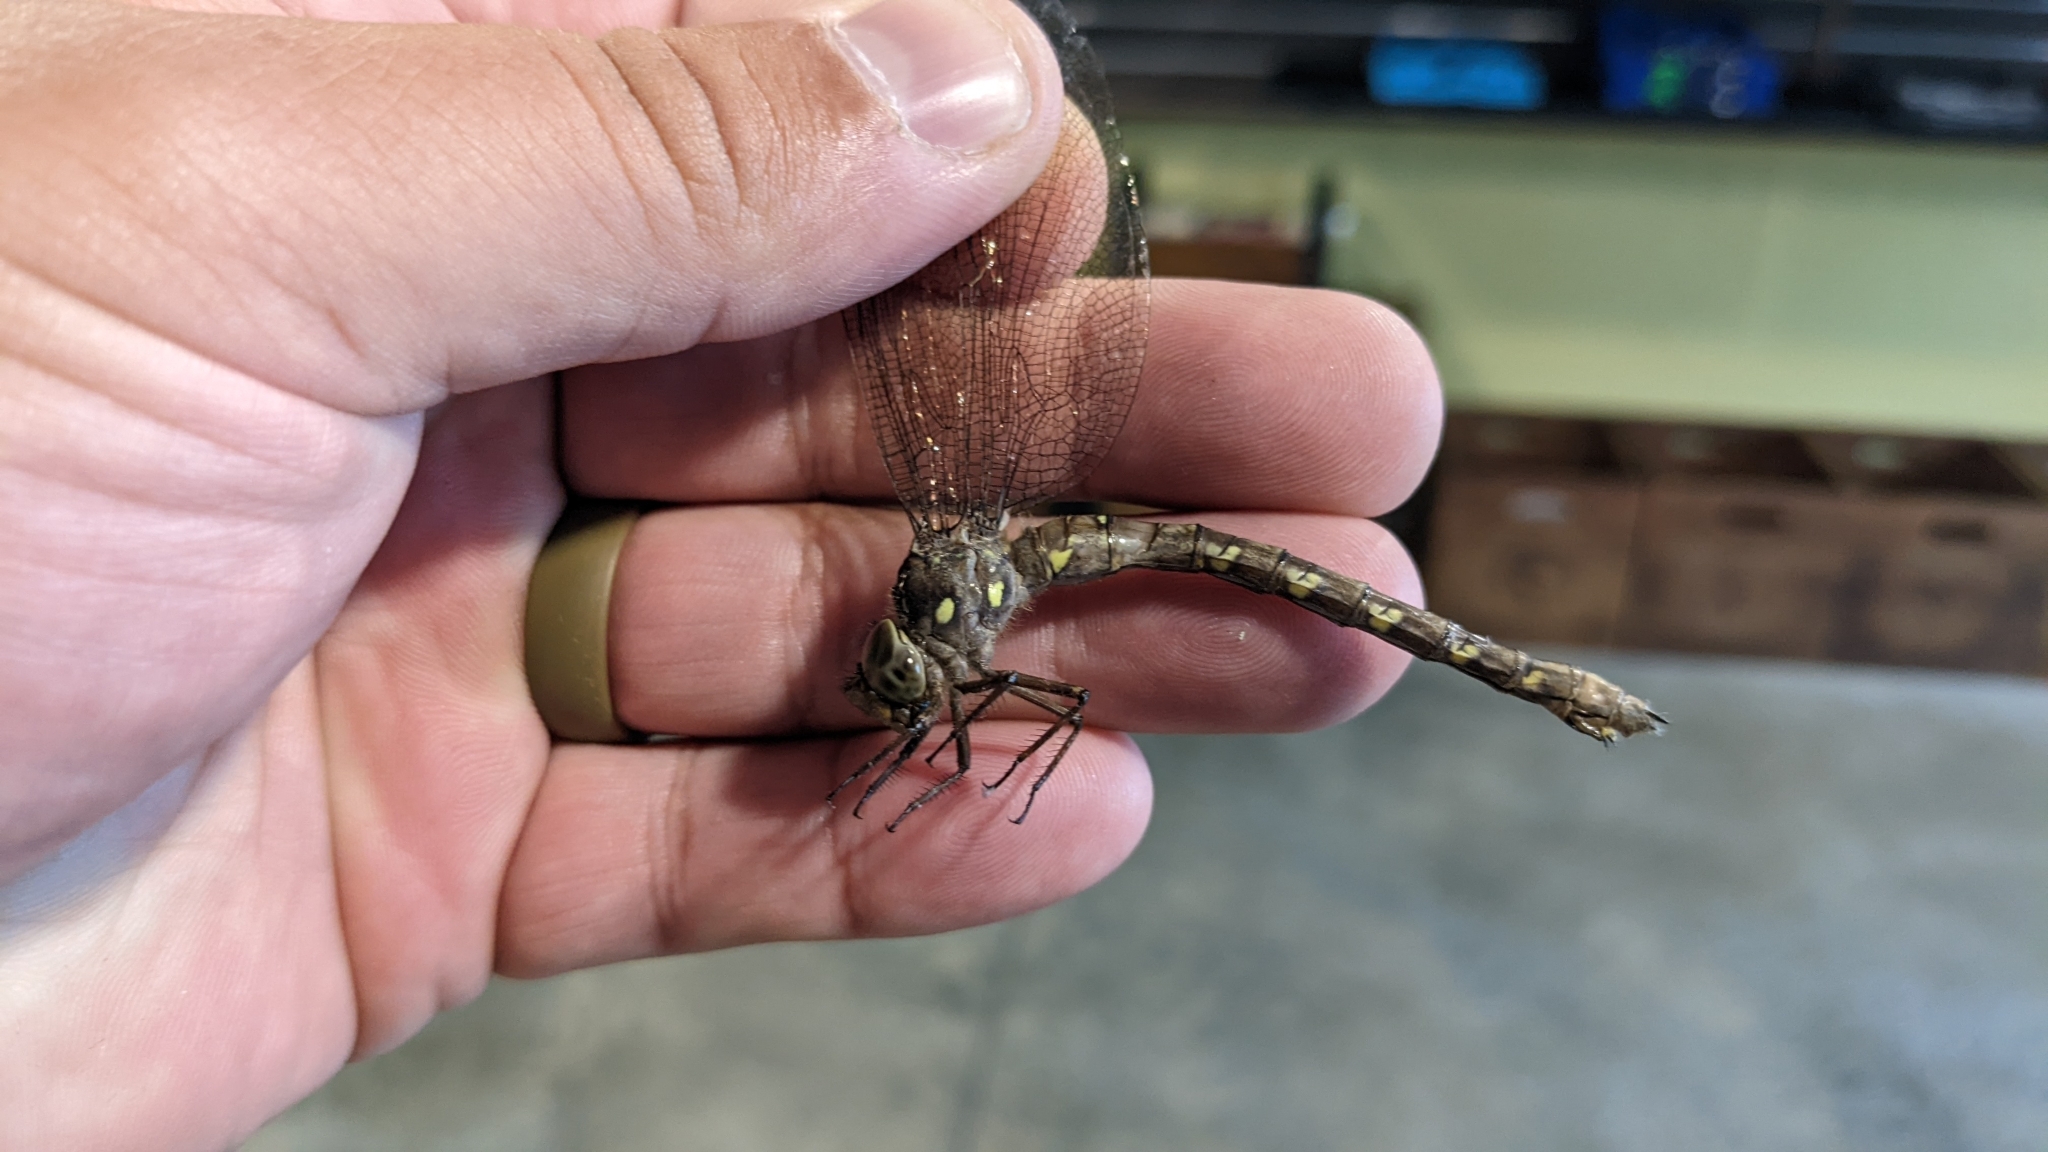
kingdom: Animalia
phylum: Arthropoda
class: Insecta
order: Odonata
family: Aeshnidae
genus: Boyeria
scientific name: Boyeria grafiana
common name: Ocellated darner
